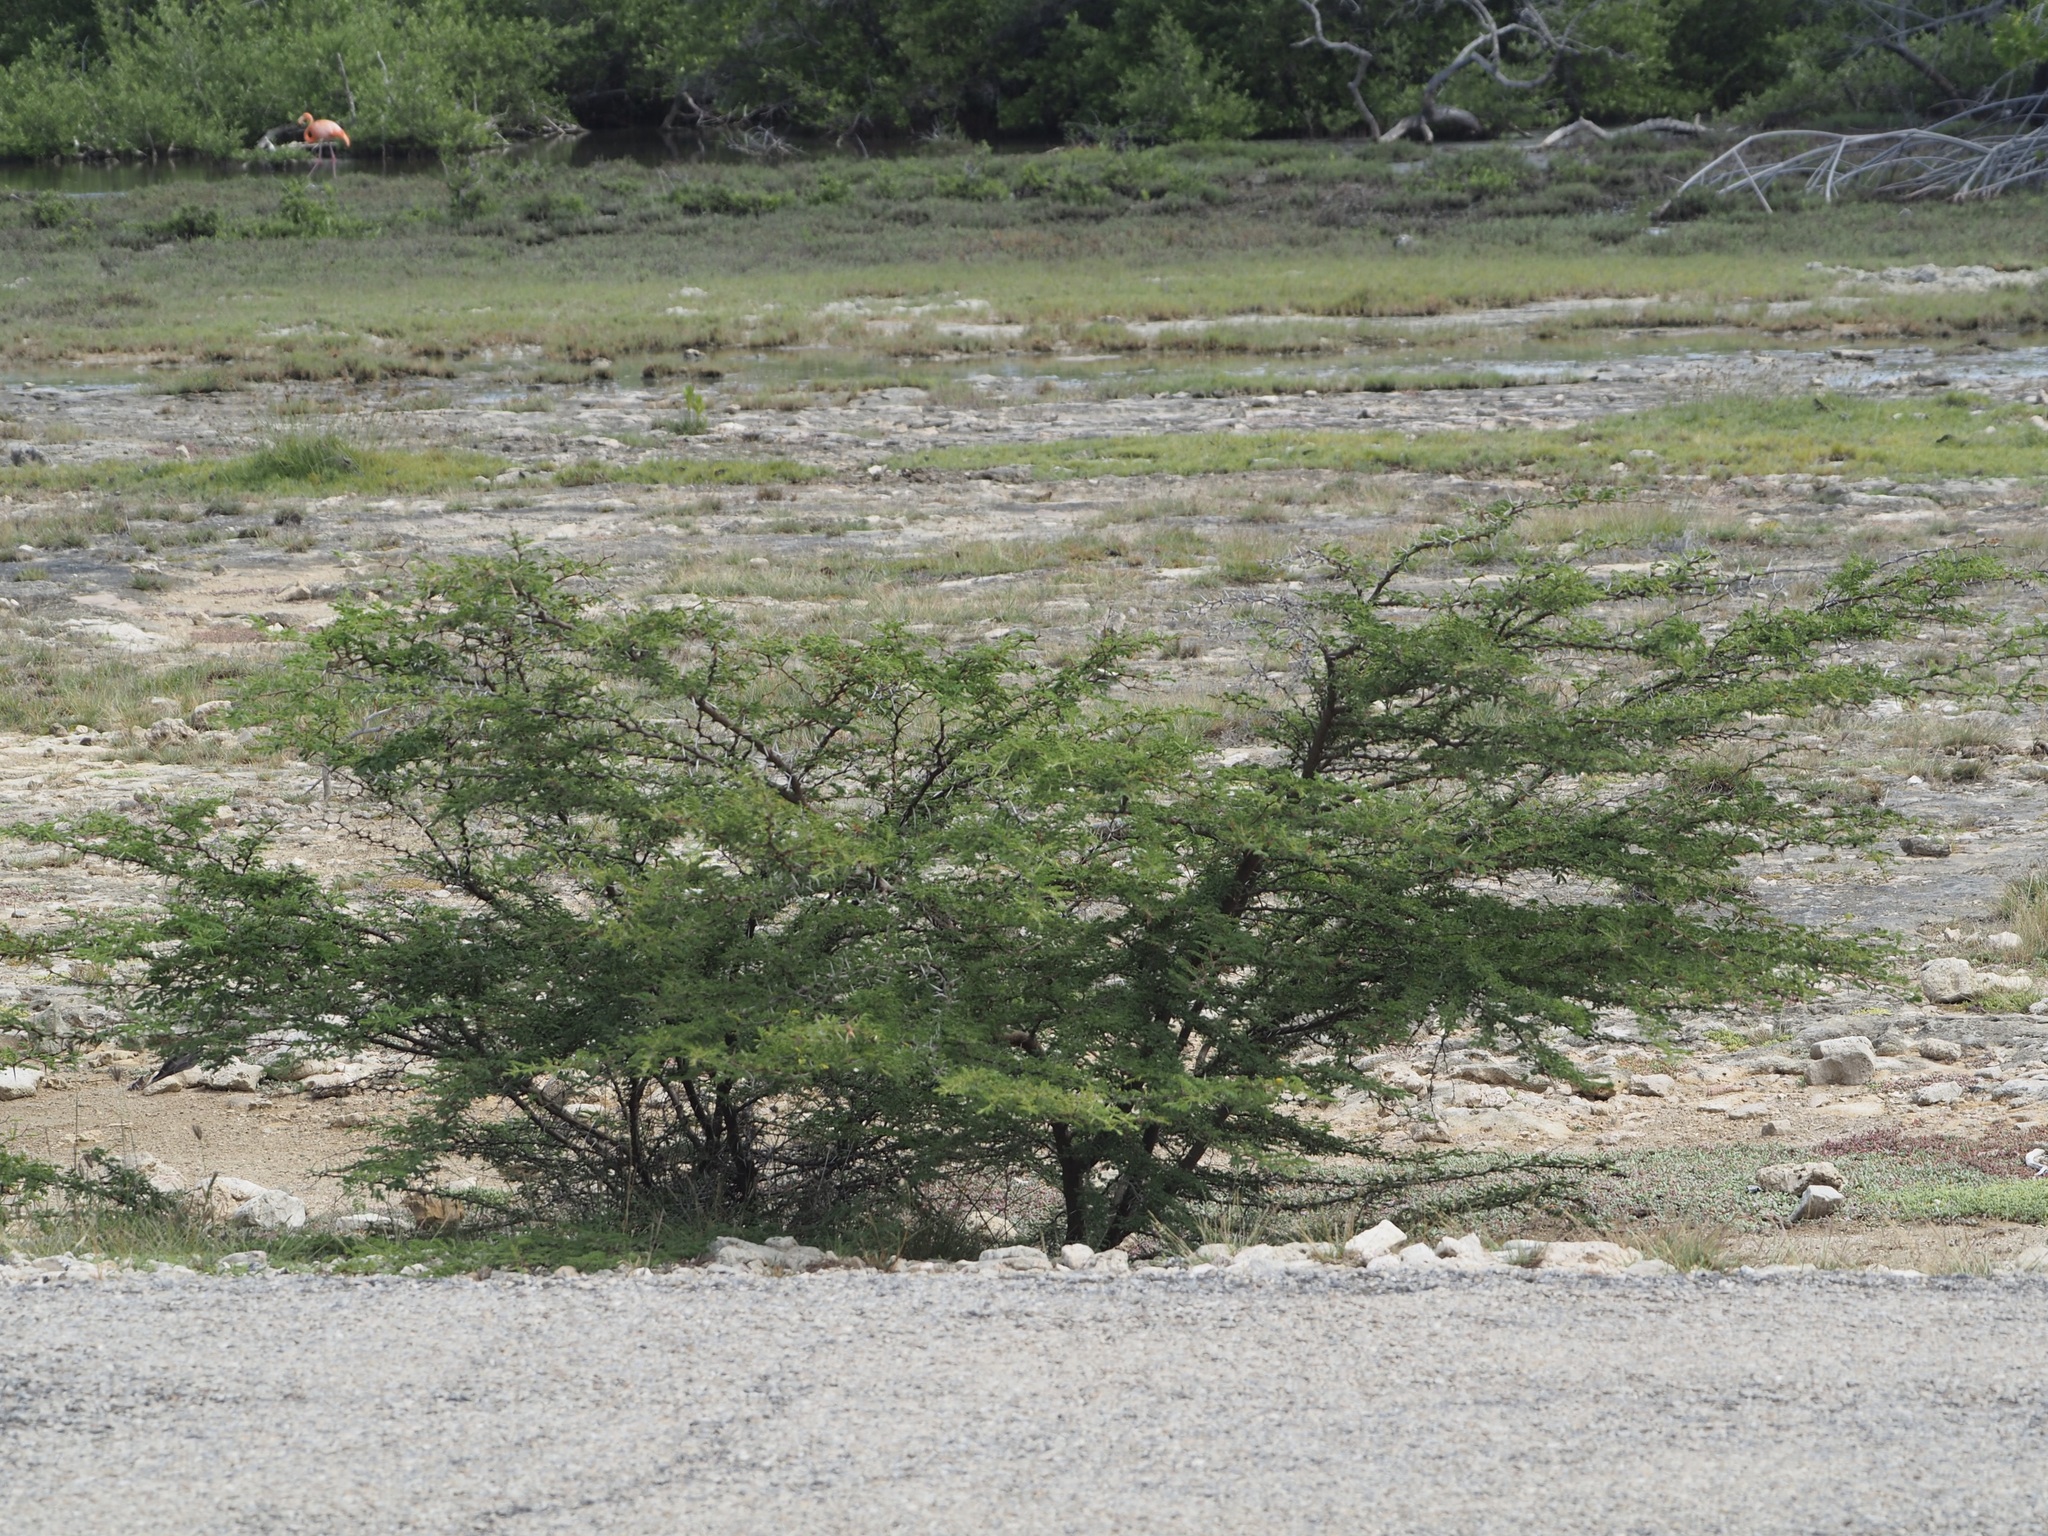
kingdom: Plantae
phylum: Tracheophyta
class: Magnoliopsida
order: Fabales
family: Fabaceae
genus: Vachellia
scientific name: Vachellia tortuosa
